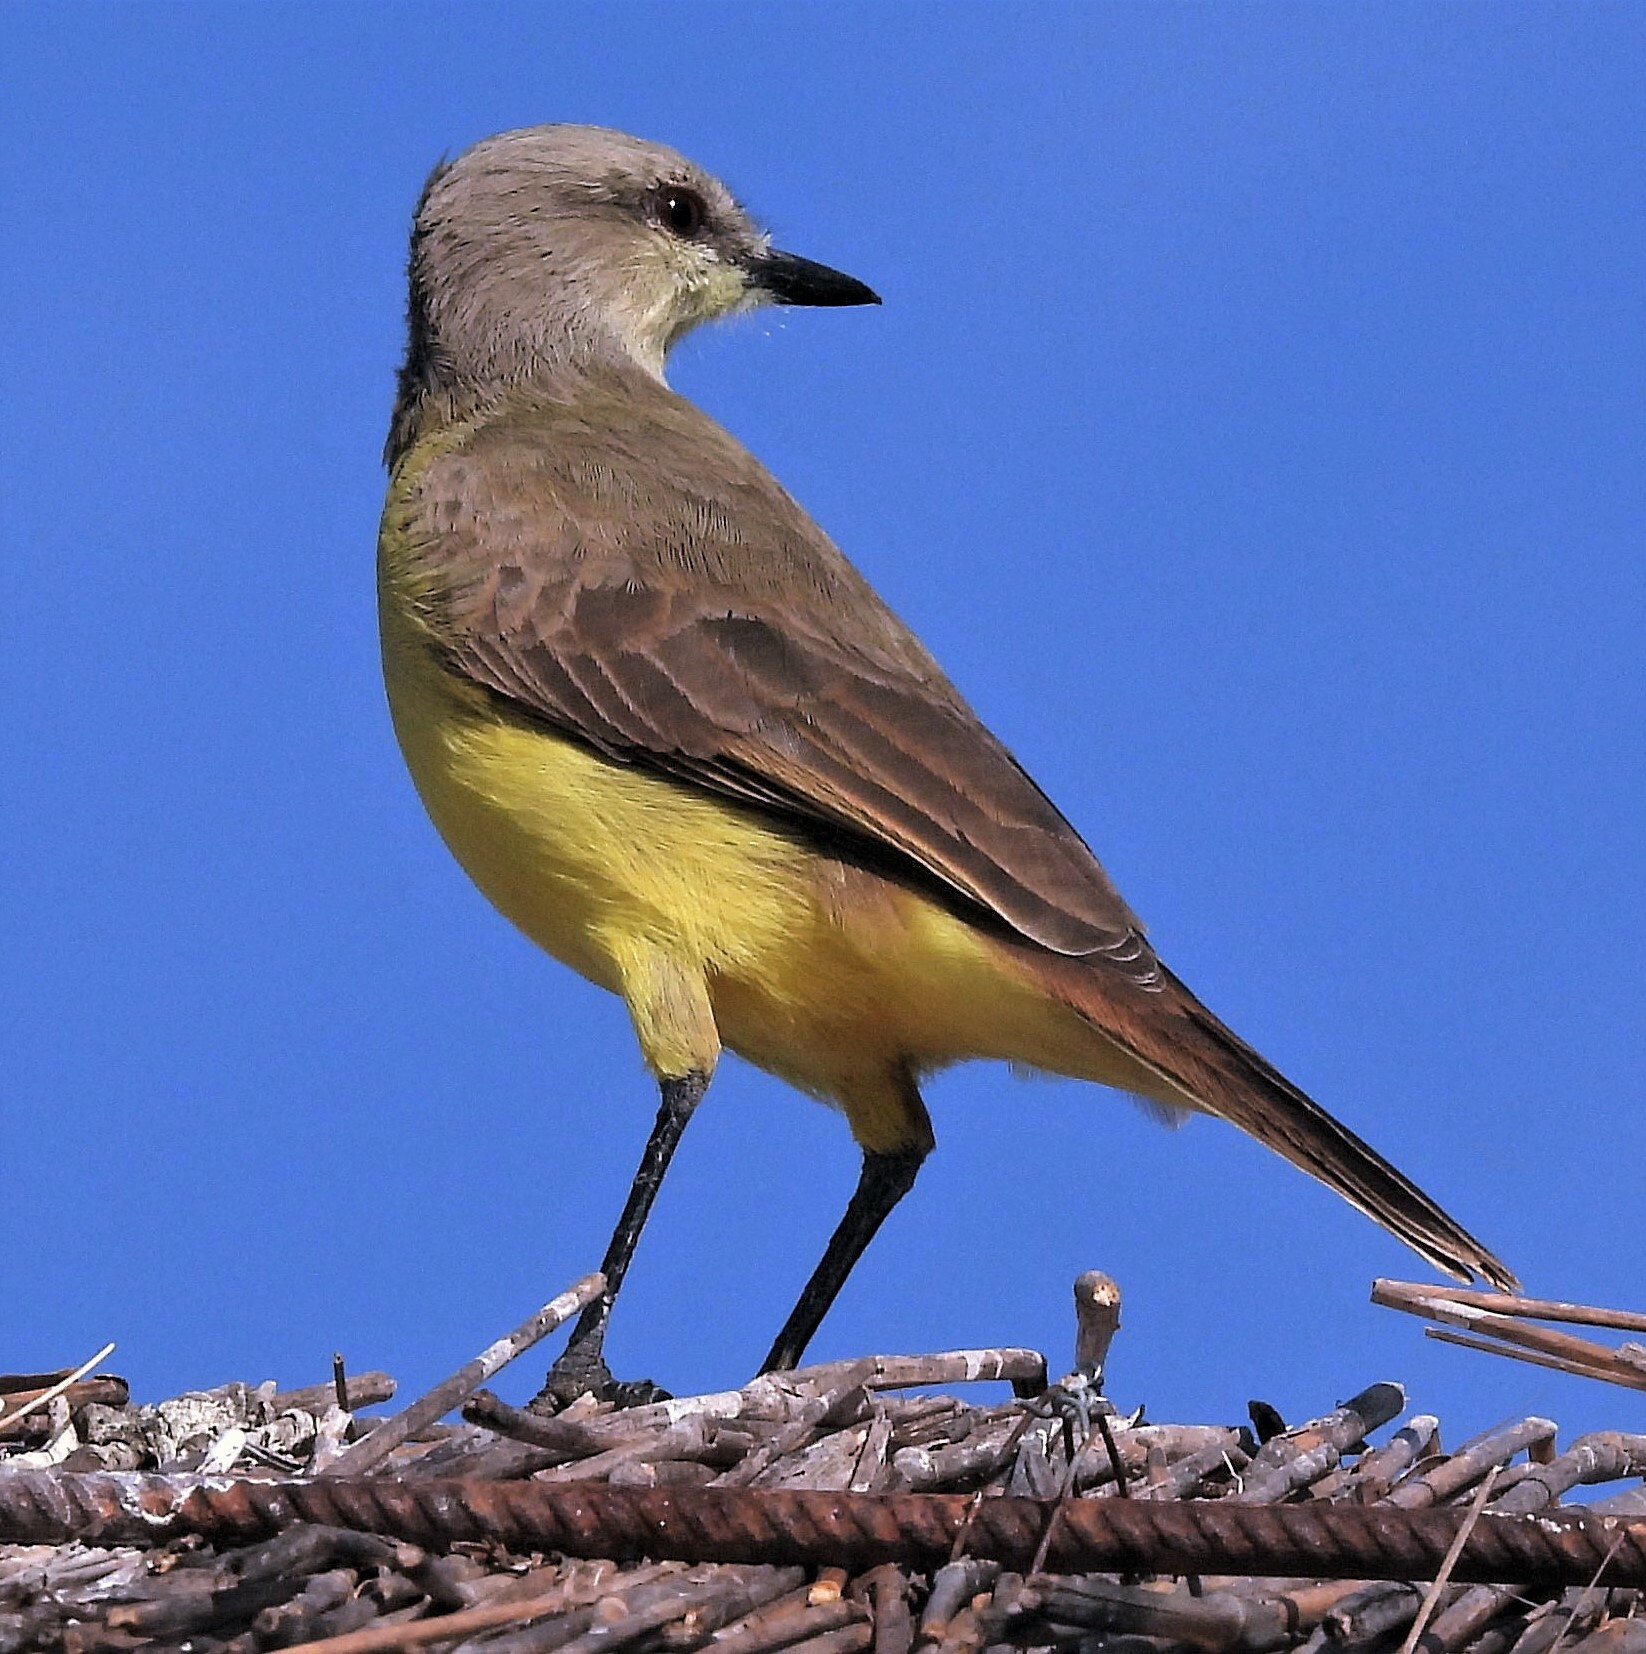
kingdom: Animalia
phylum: Chordata
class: Aves
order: Passeriformes
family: Tyrannidae
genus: Machetornis
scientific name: Machetornis rixosa
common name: Cattle tyrant
